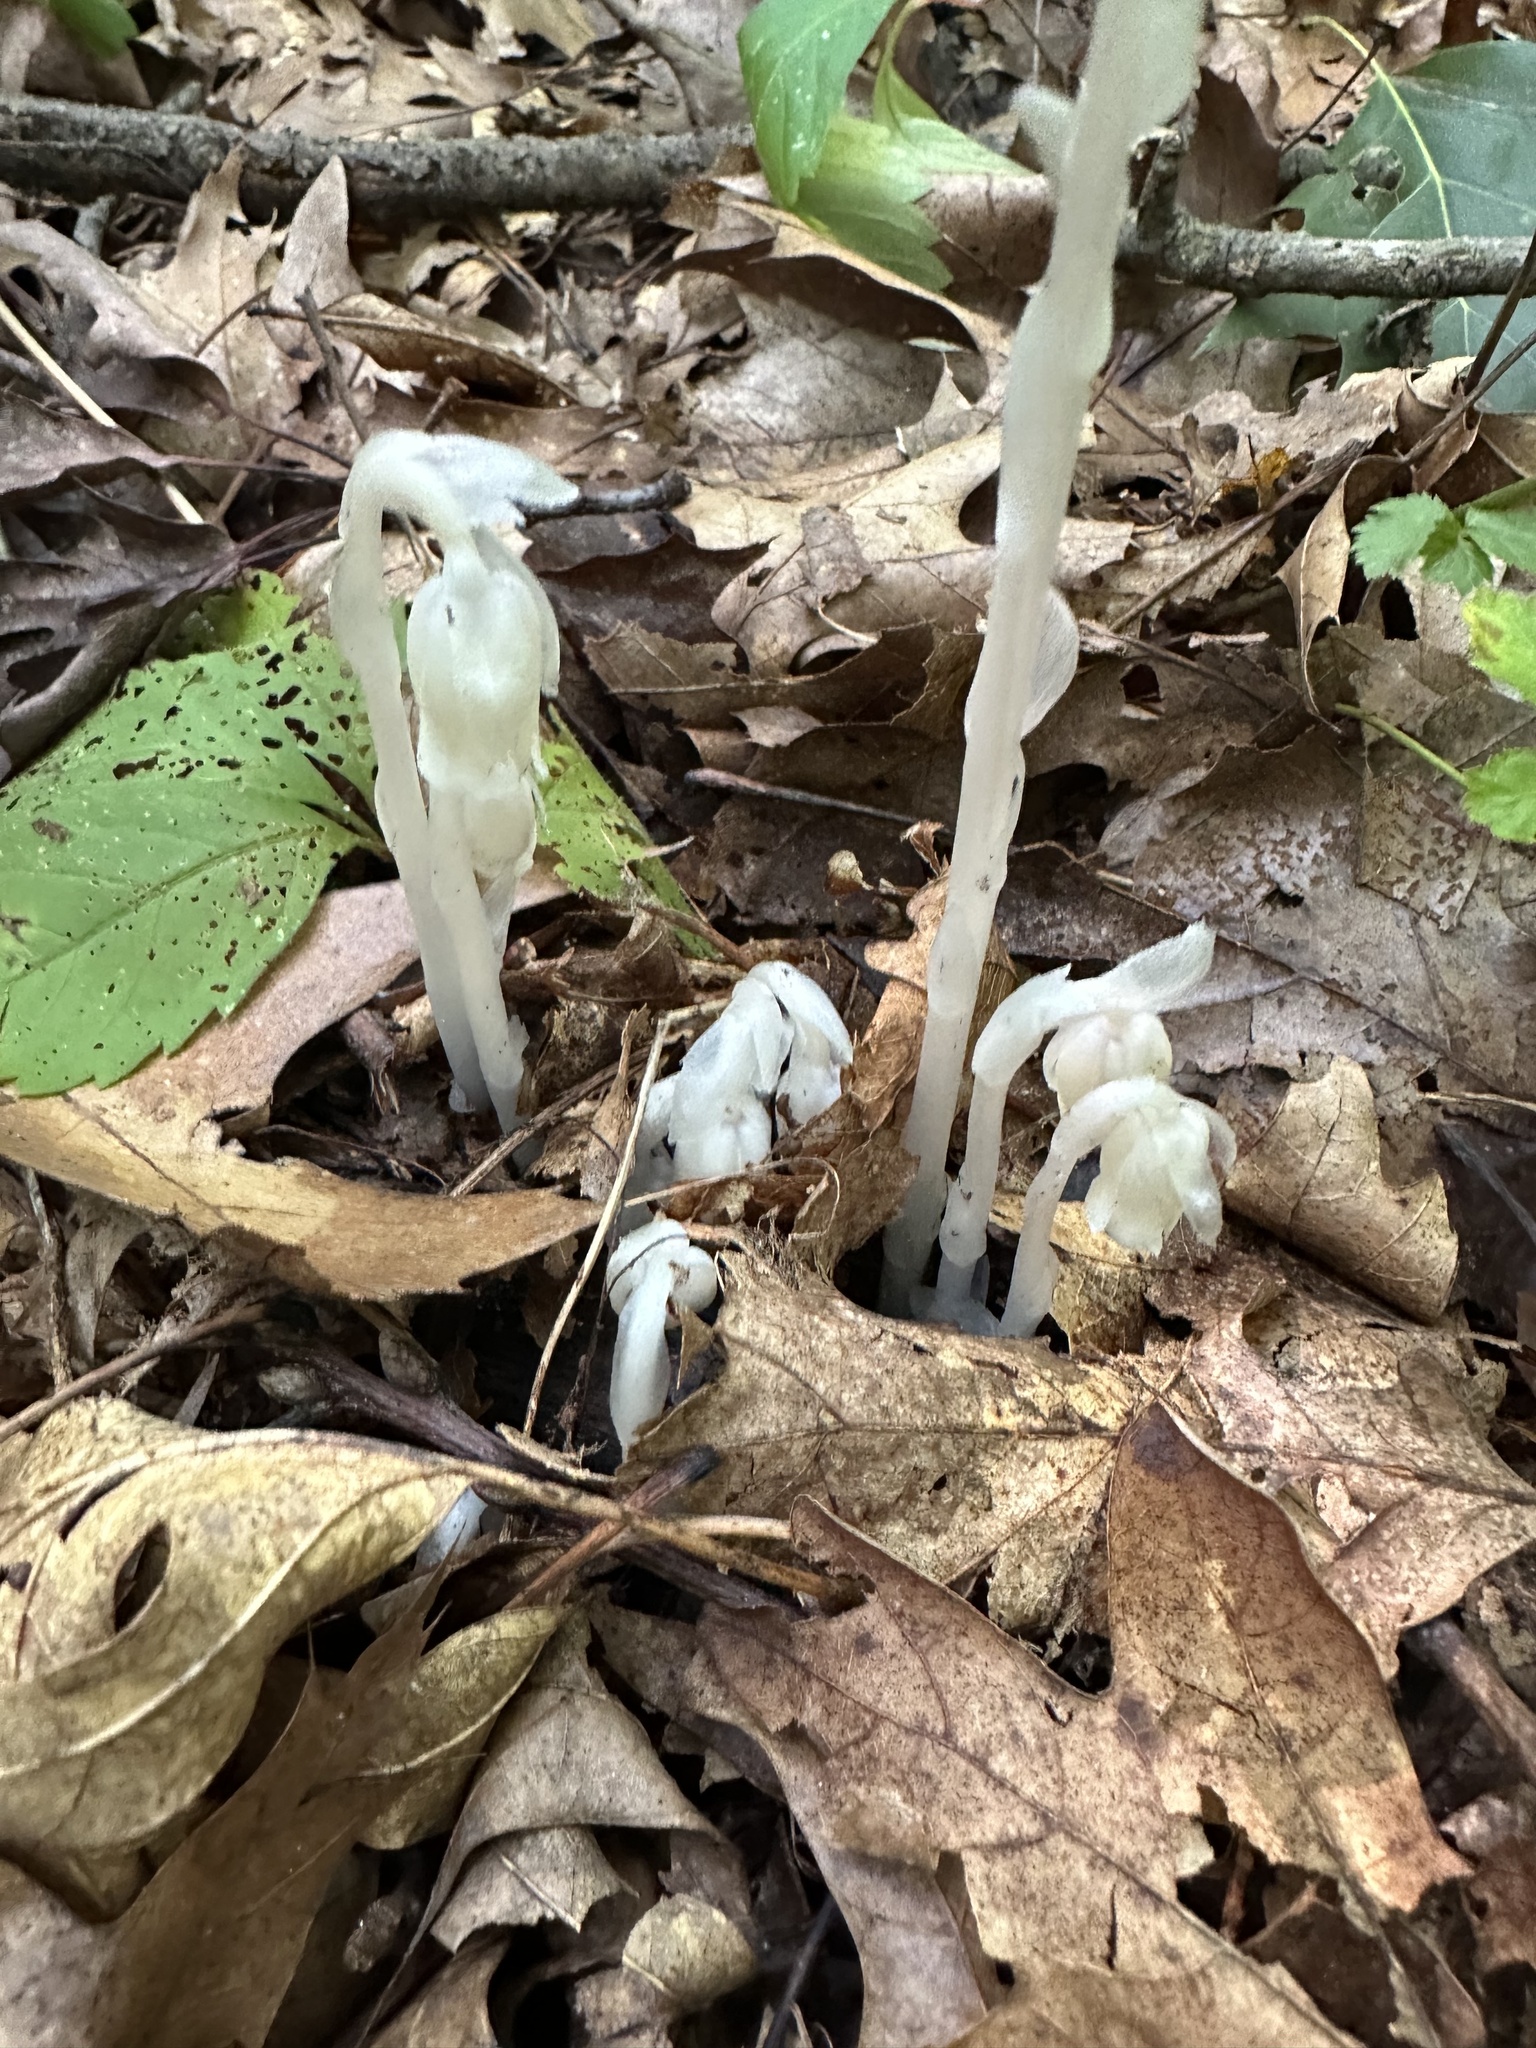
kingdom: Plantae
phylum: Tracheophyta
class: Magnoliopsida
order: Ericales
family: Ericaceae
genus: Monotropa
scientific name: Monotropa uniflora
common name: Convulsion root
